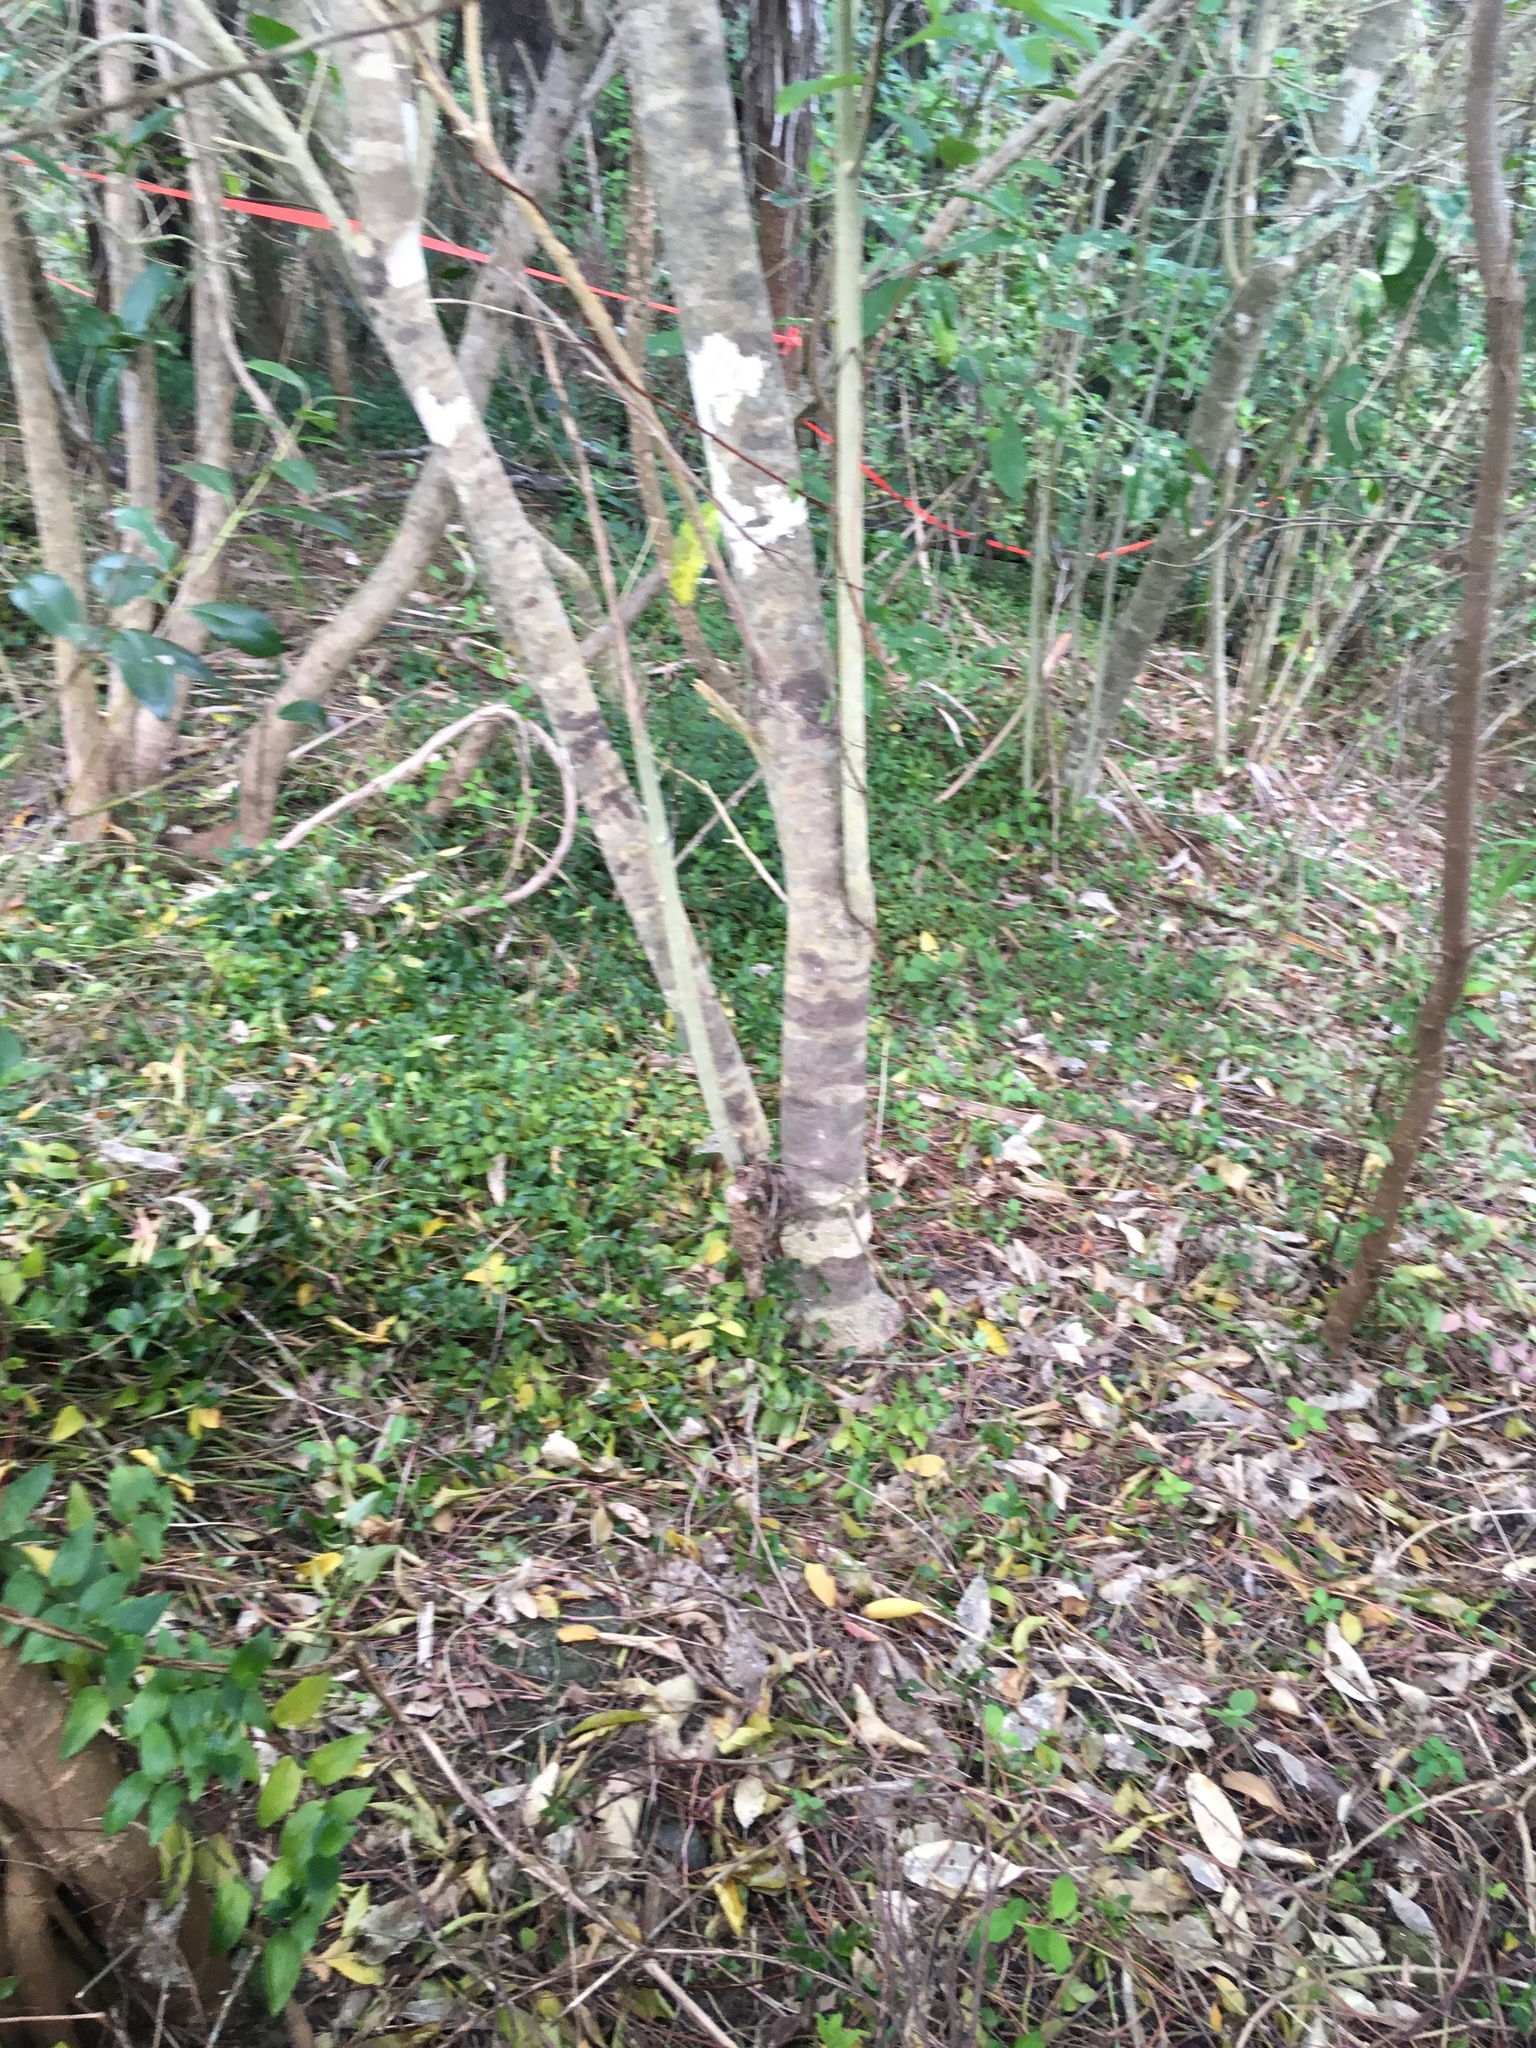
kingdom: Plantae
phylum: Tracheophyta
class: Liliopsida
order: Commelinales
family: Commelinaceae
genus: Tradescantia
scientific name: Tradescantia fluminensis
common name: Wandering-jew
